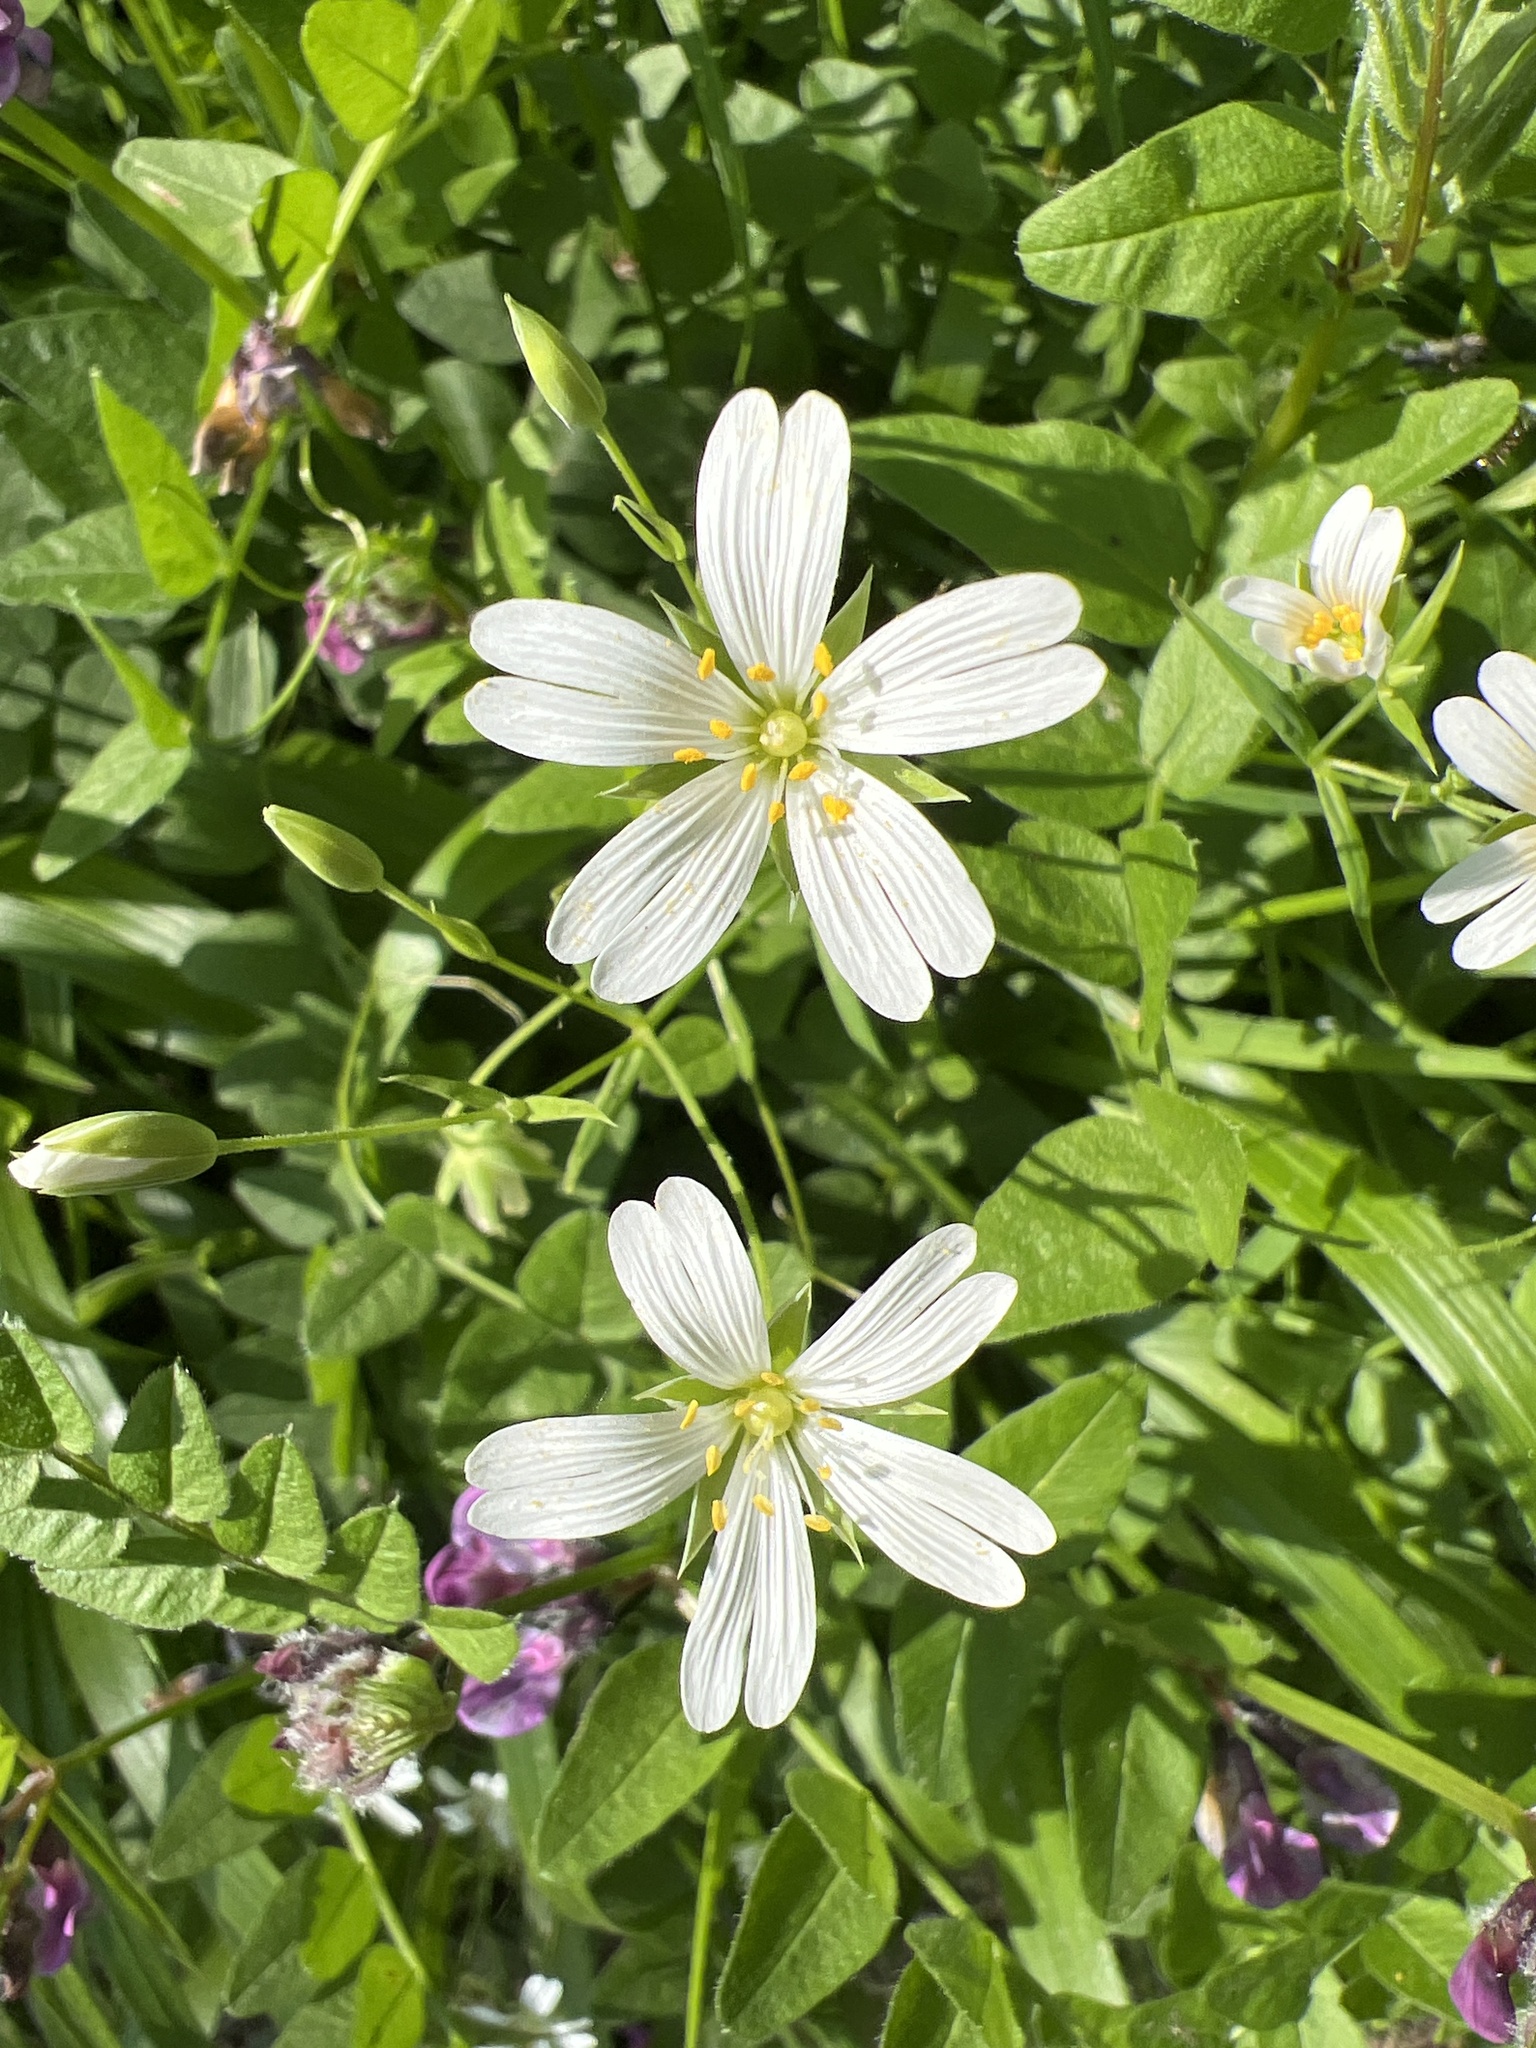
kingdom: Plantae
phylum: Tracheophyta
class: Magnoliopsida
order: Caryophyllales
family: Caryophyllaceae
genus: Rabelera
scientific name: Rabelera holostea
